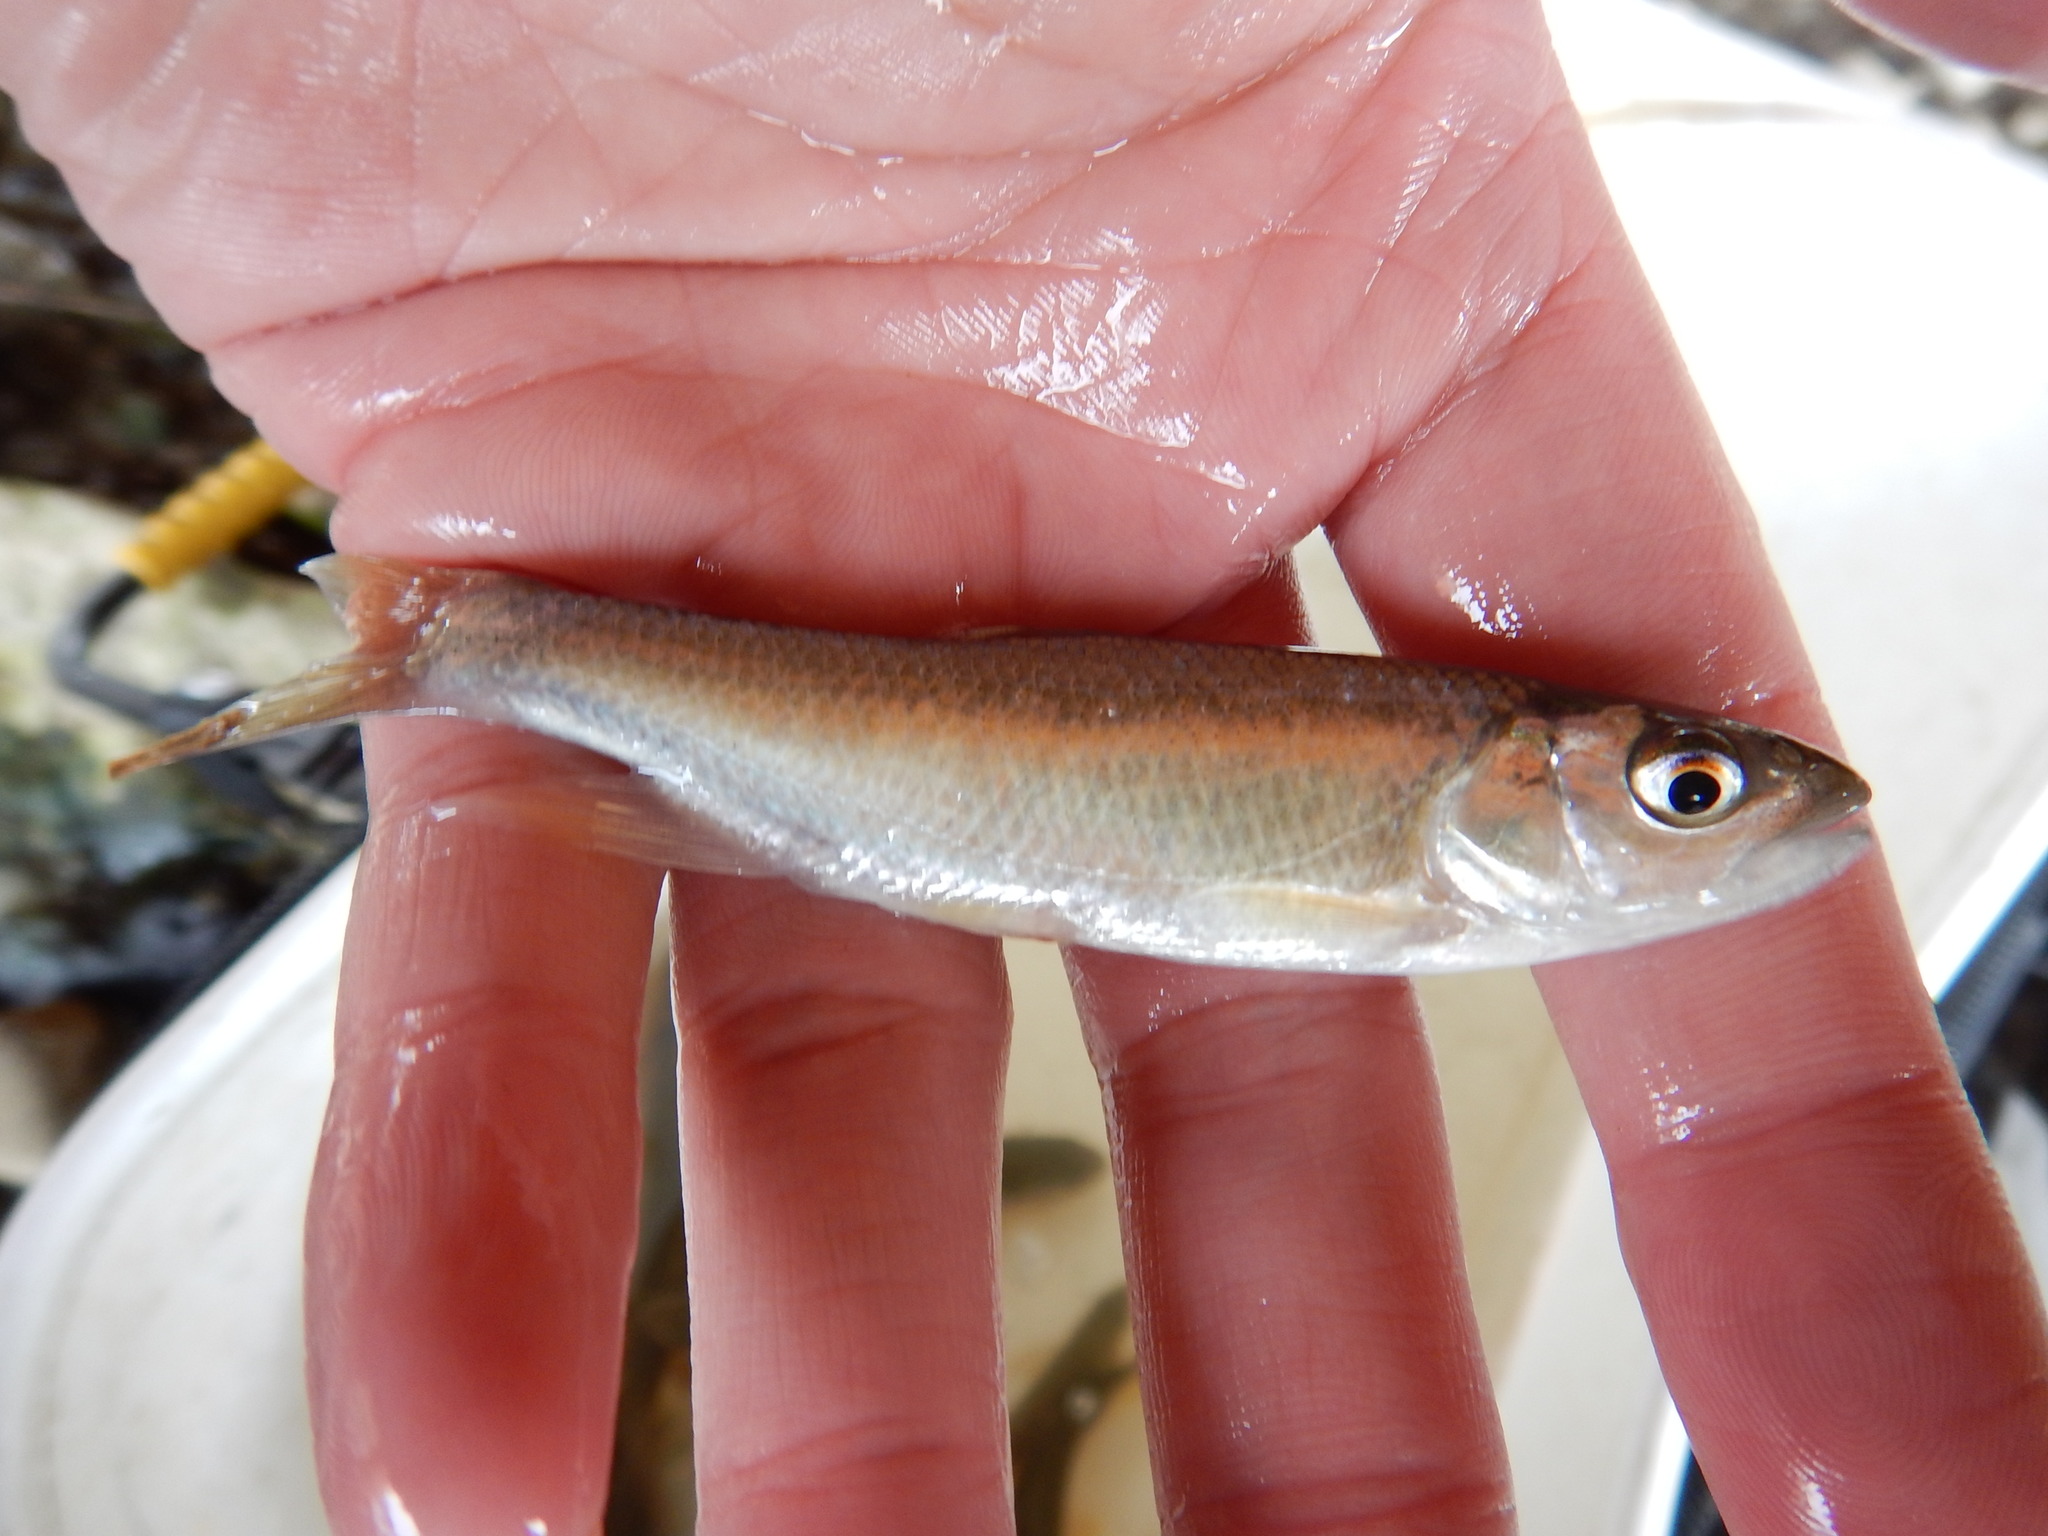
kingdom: Animalia
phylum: Chordata
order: Cypriniformes
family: Cyprinidae
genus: Opsariichthys
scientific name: Opsariichthys pachycephalus
